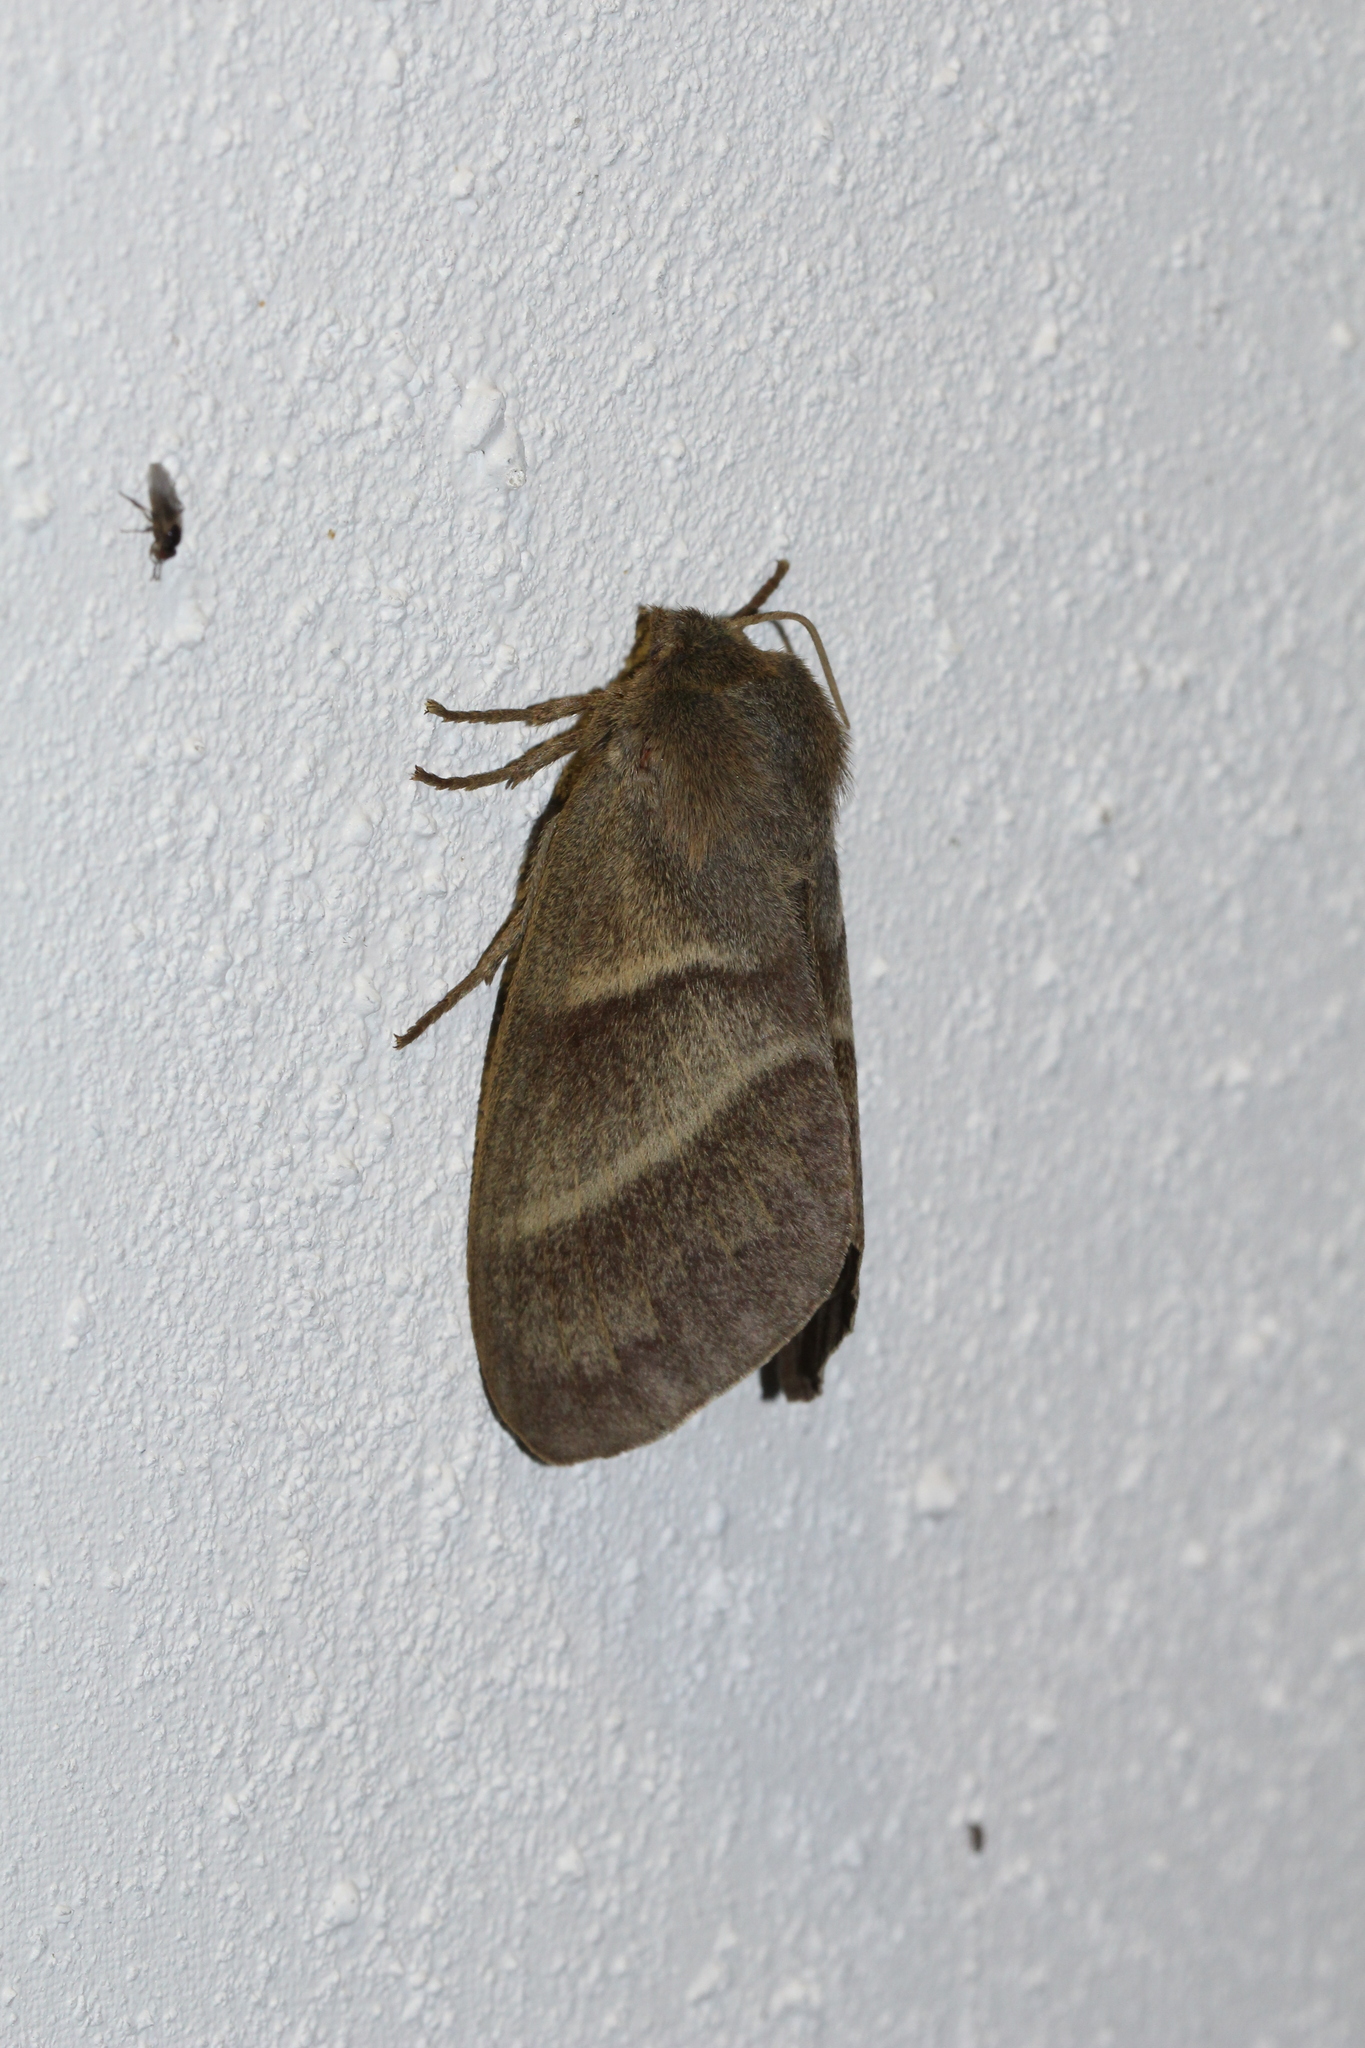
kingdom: Animalia
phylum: Arthropoda
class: Insecta
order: Lepidoptera
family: Lasiocampidae
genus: Macrothylacia
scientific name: Macrothylacia rubi
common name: Fox moth
